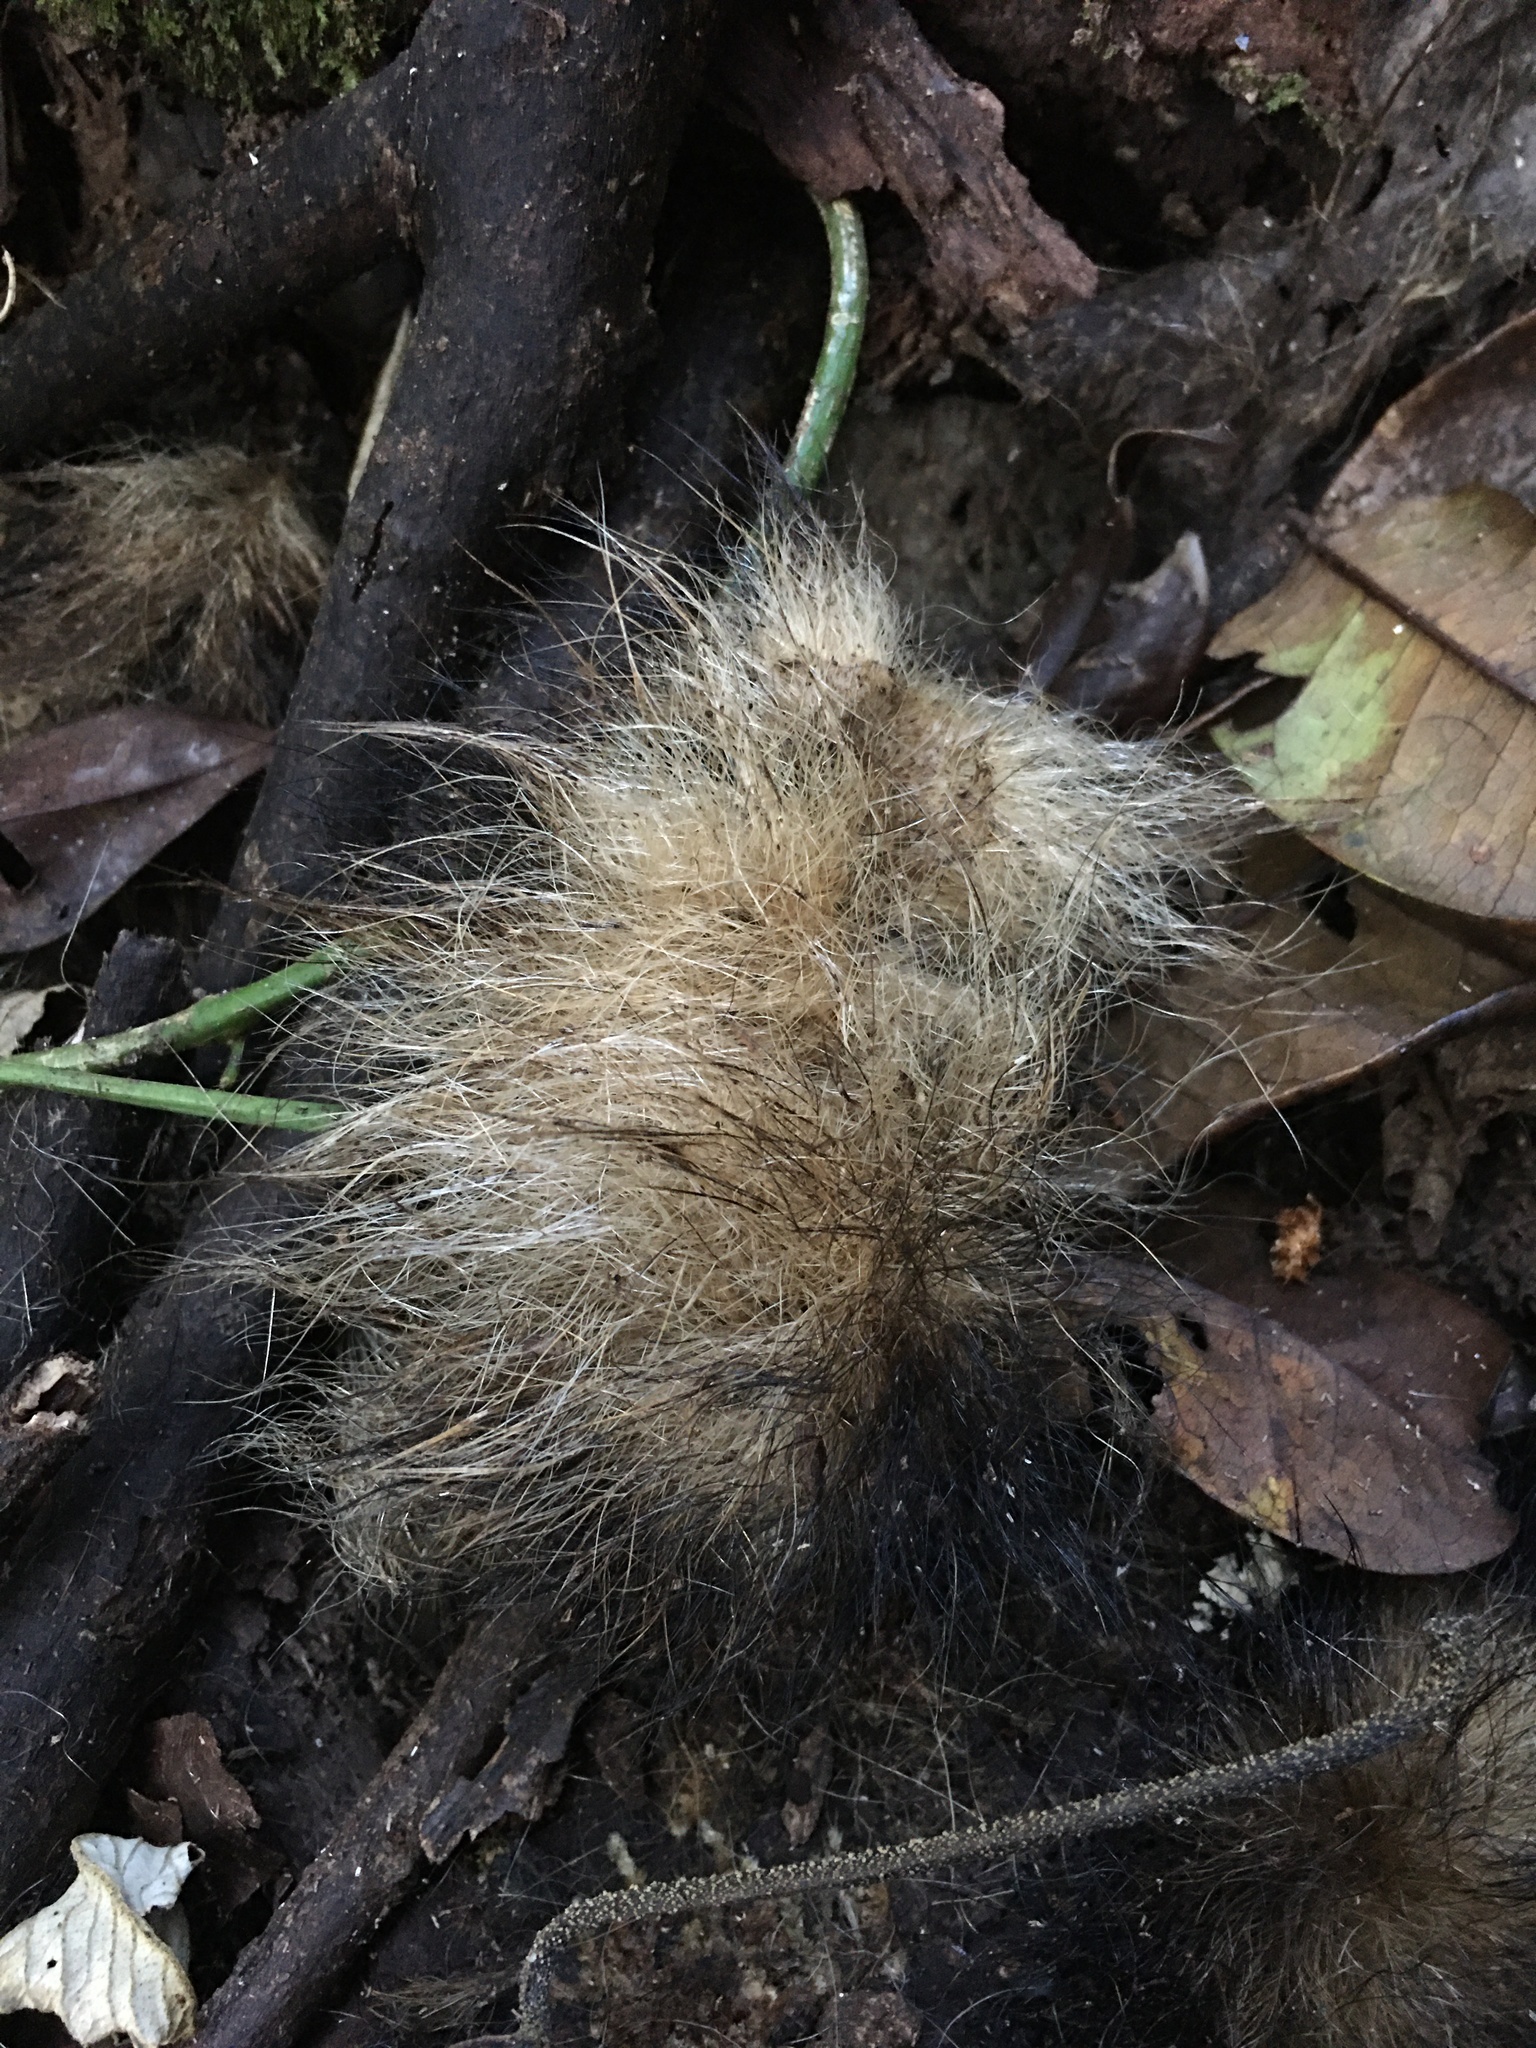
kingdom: Animalia
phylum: Chordata
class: Mammalia
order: Pilosa
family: Myrmecophagidae
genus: Tamandua
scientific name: Tamandua tetradactyla
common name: Southern tamandua
